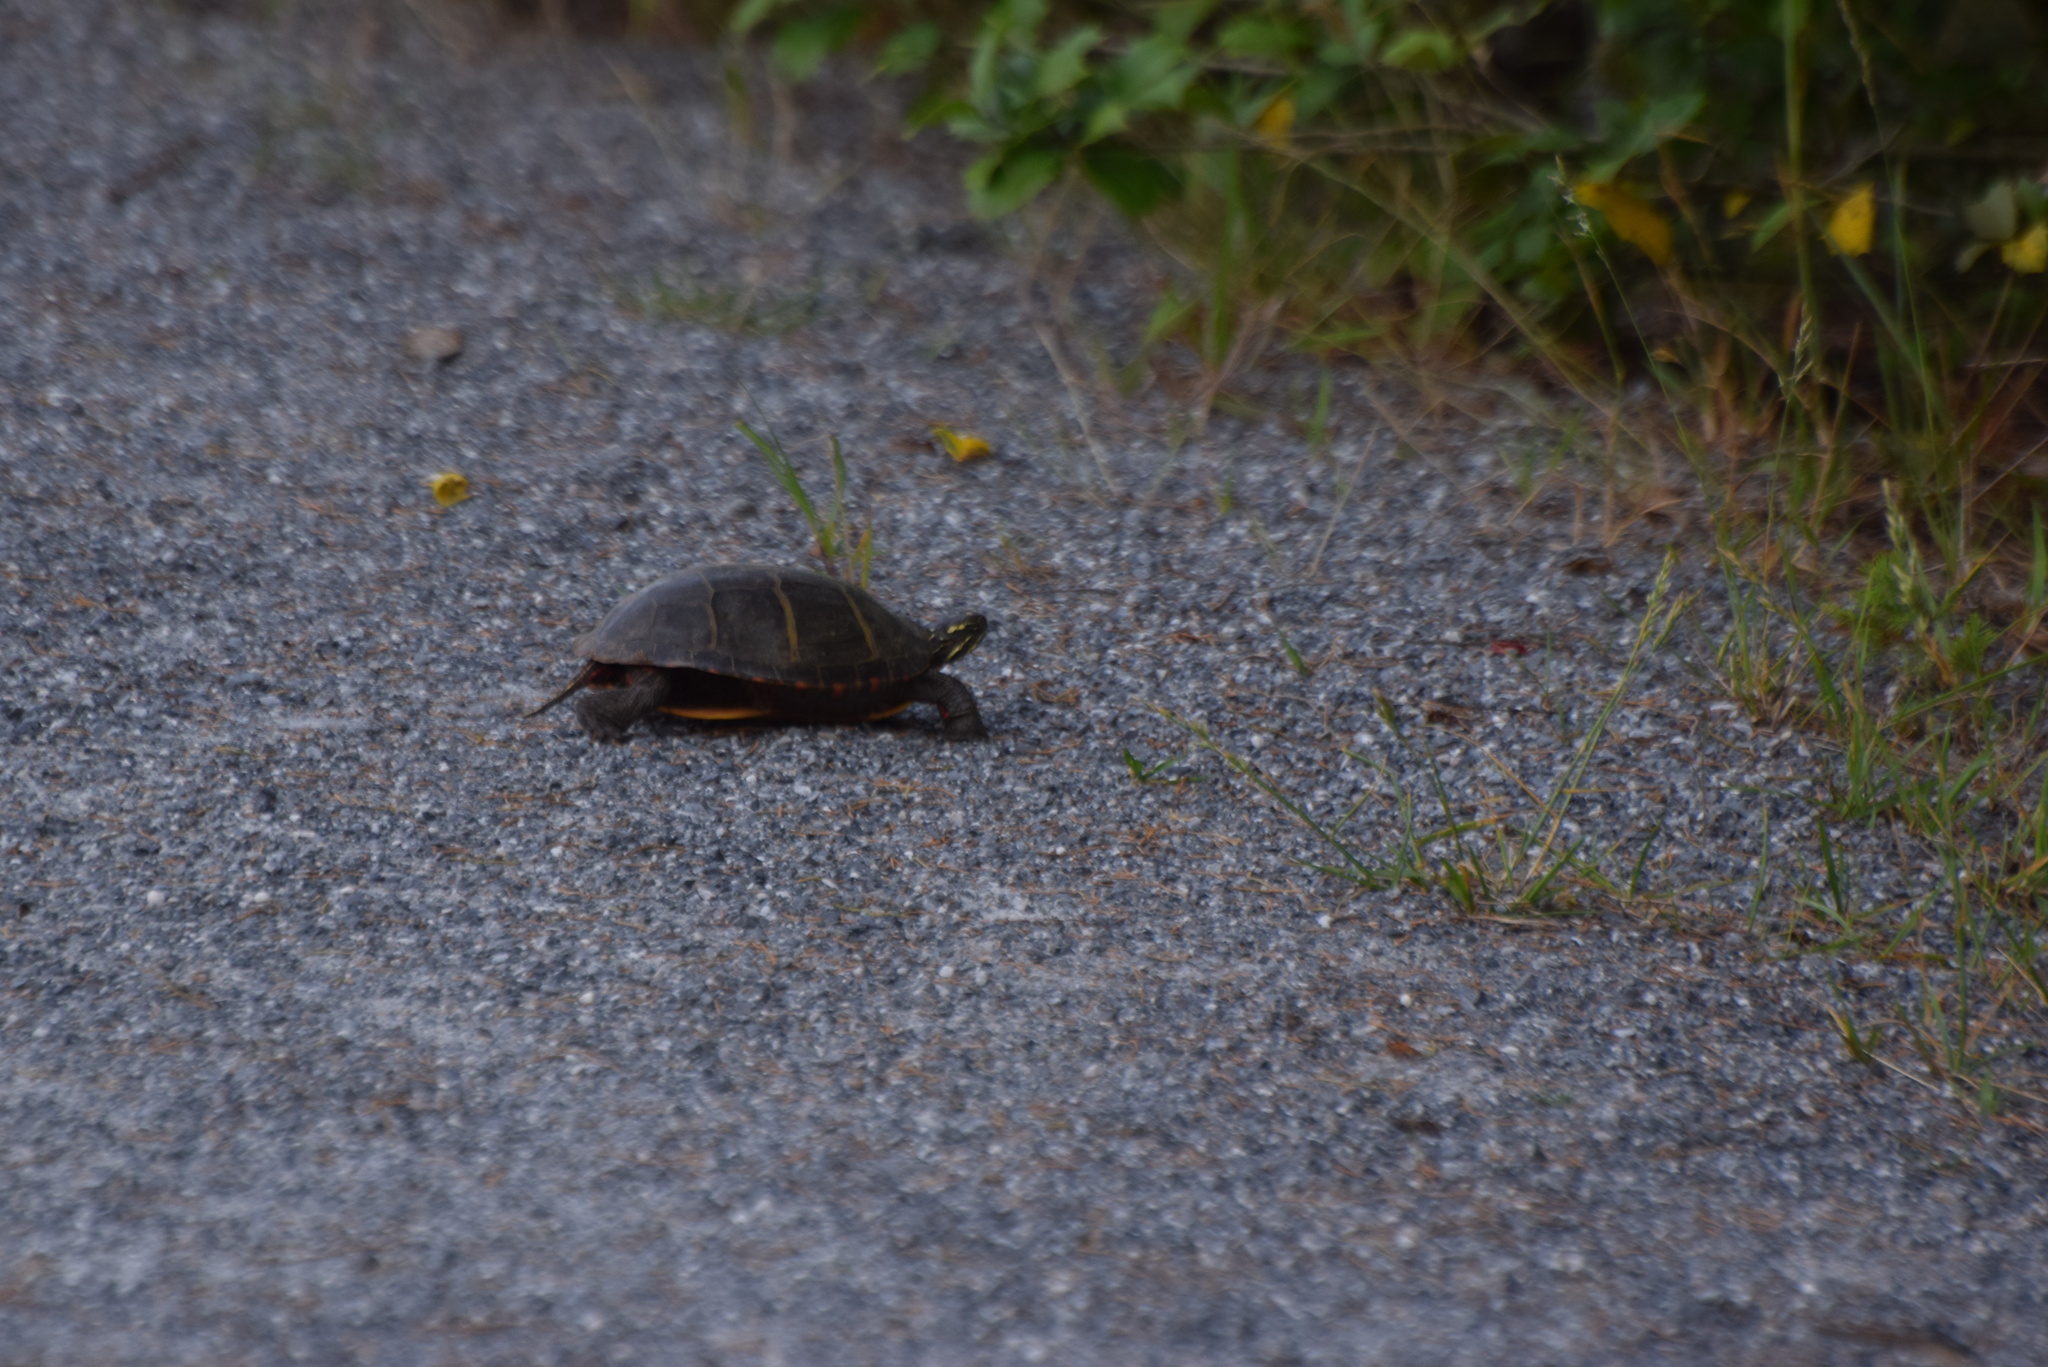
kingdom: Animalia
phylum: Chordata
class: Testudines
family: Emydidae
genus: Chrysemys
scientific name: Chrysemys picta
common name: Painted turtle
